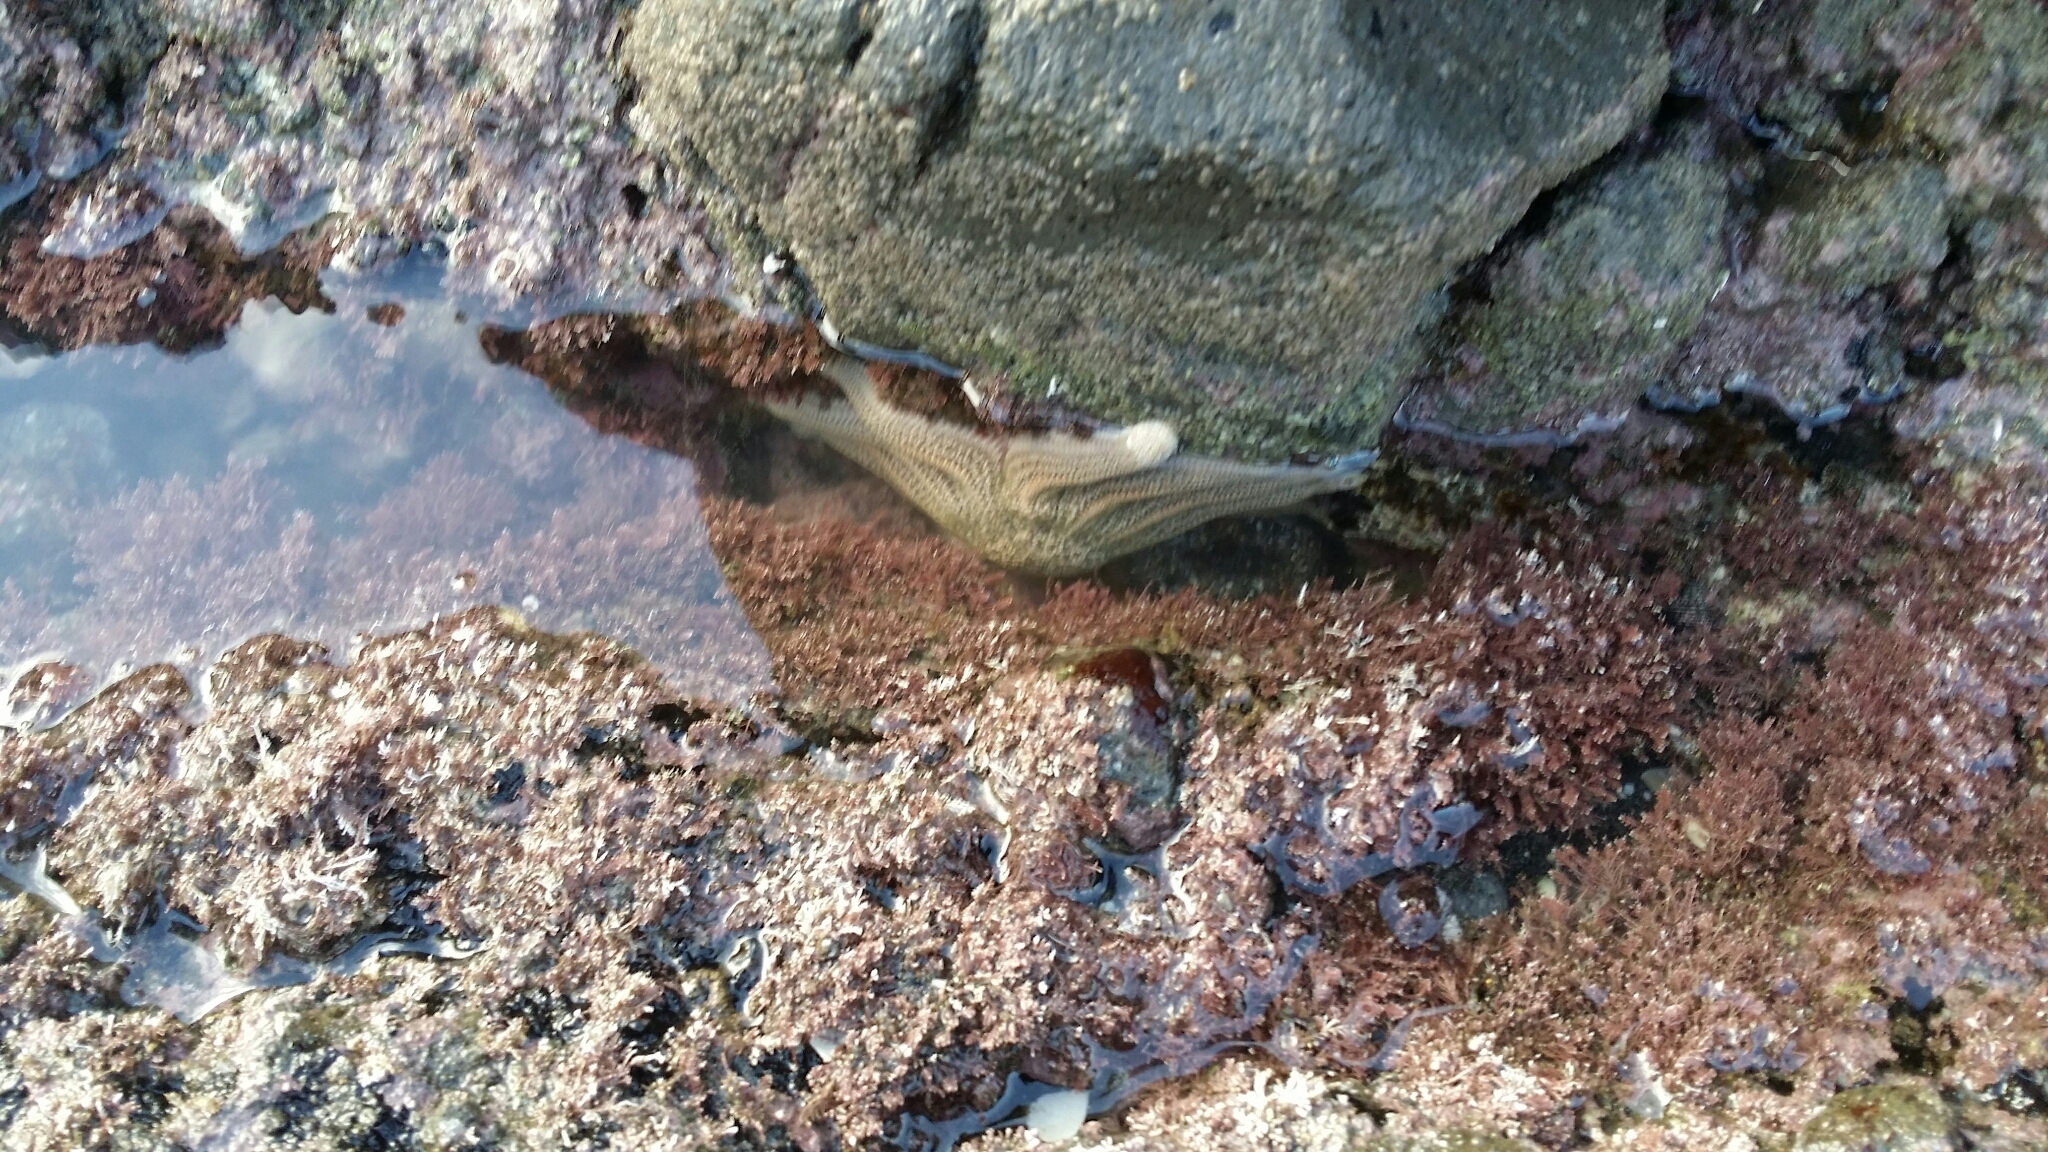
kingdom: Animalia
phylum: Echinodermata
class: Asteroidea
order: Forcipulatida
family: Stichasteridae
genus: Stichaster
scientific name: Stichaster australis
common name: Reef starfish
